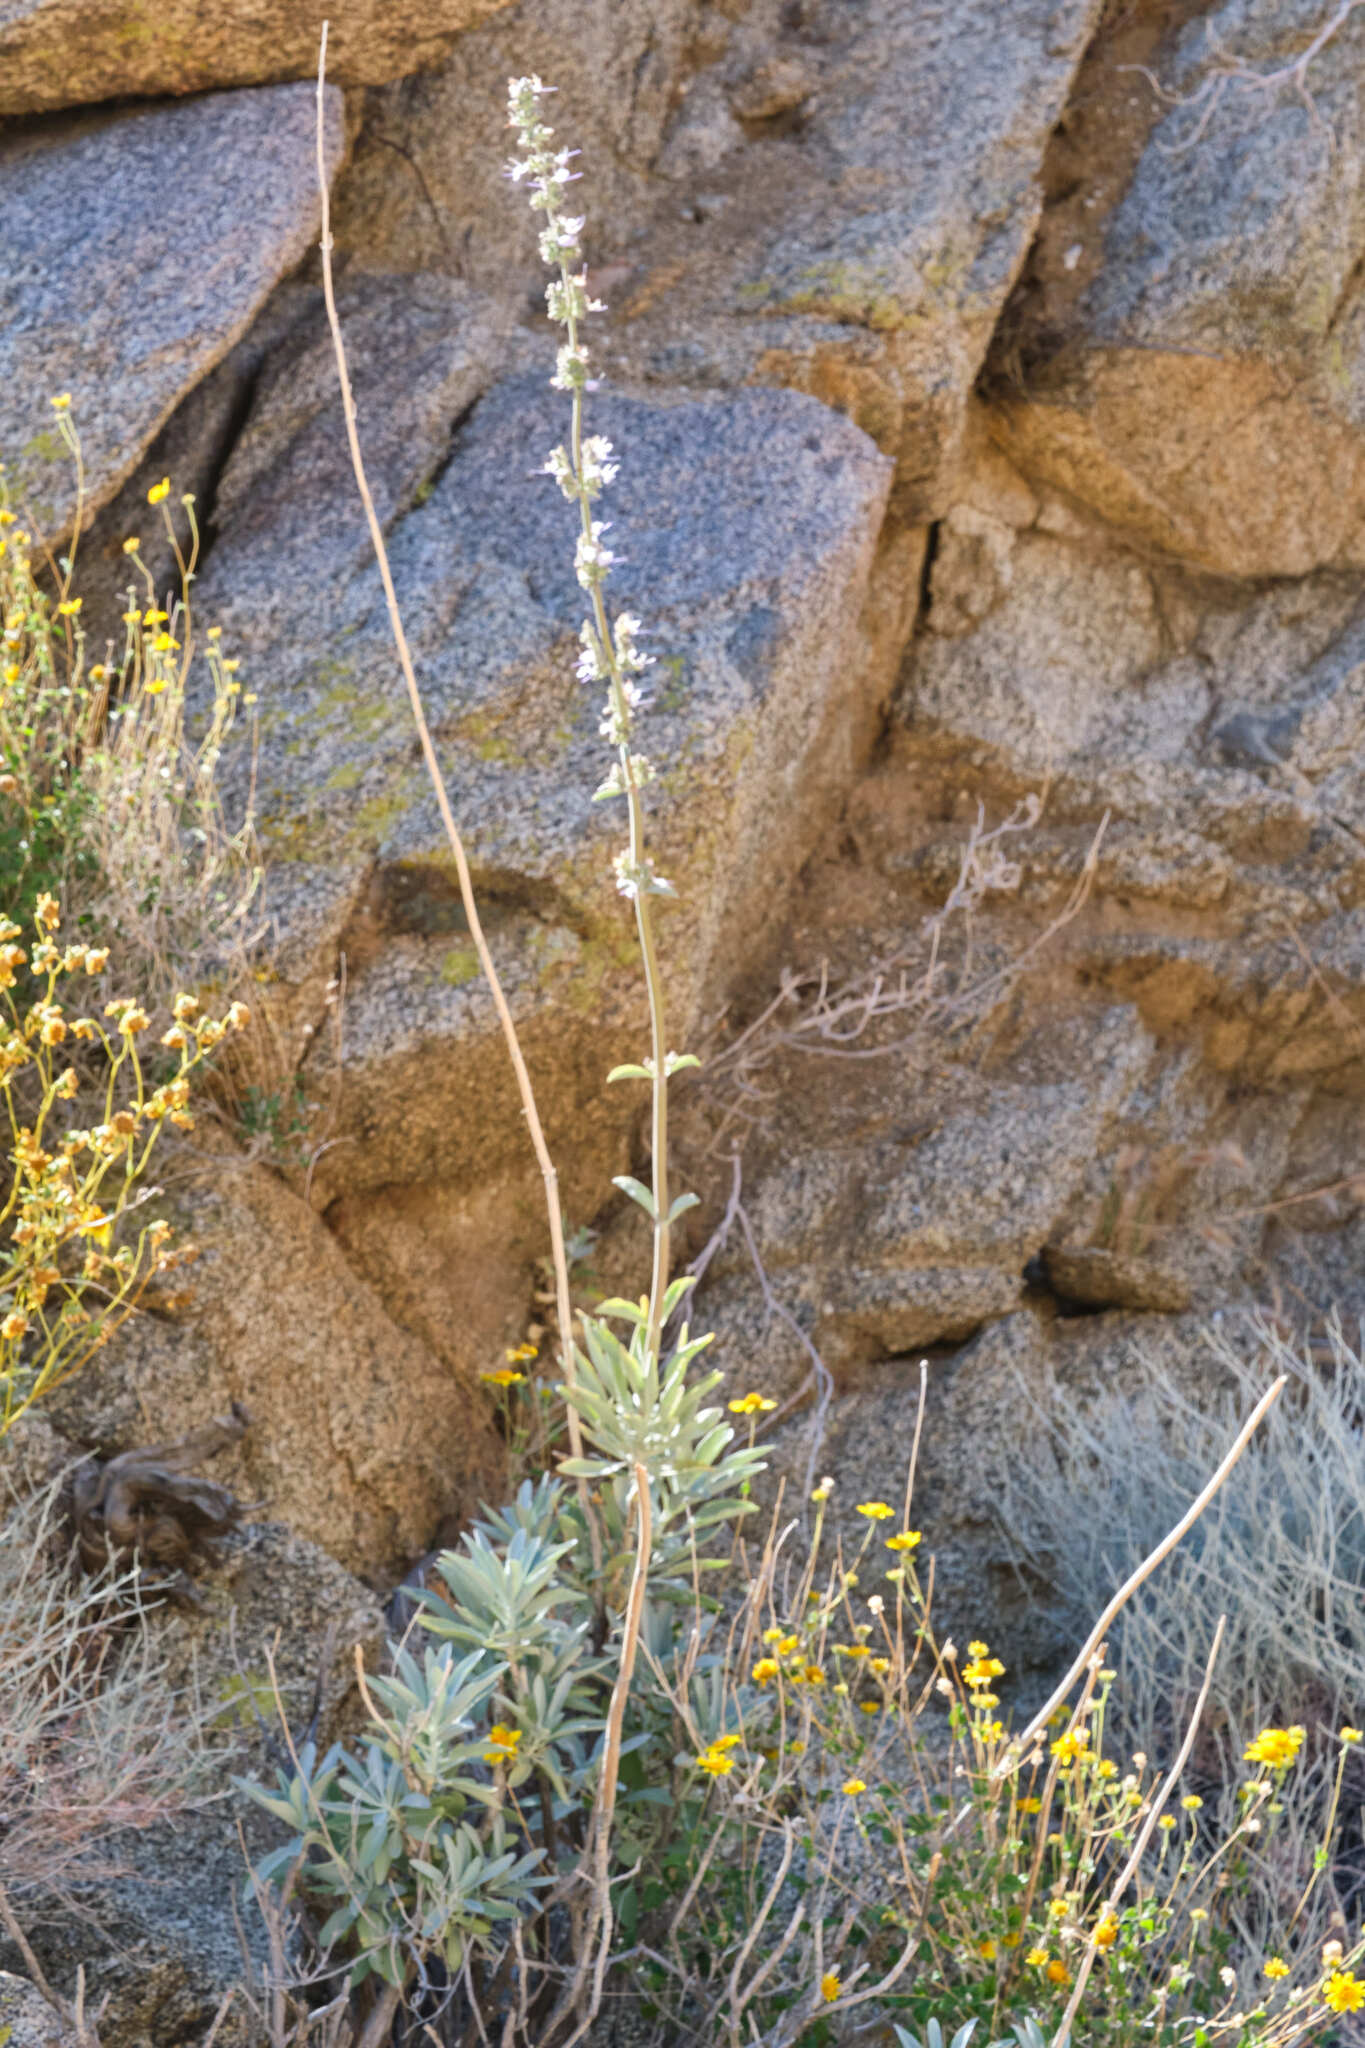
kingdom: Plantae
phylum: Tracheophyta
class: Magnoliopsida
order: Lamiales
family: Lamiaceae
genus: Salvia
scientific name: Salvia apiana
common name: White sage
